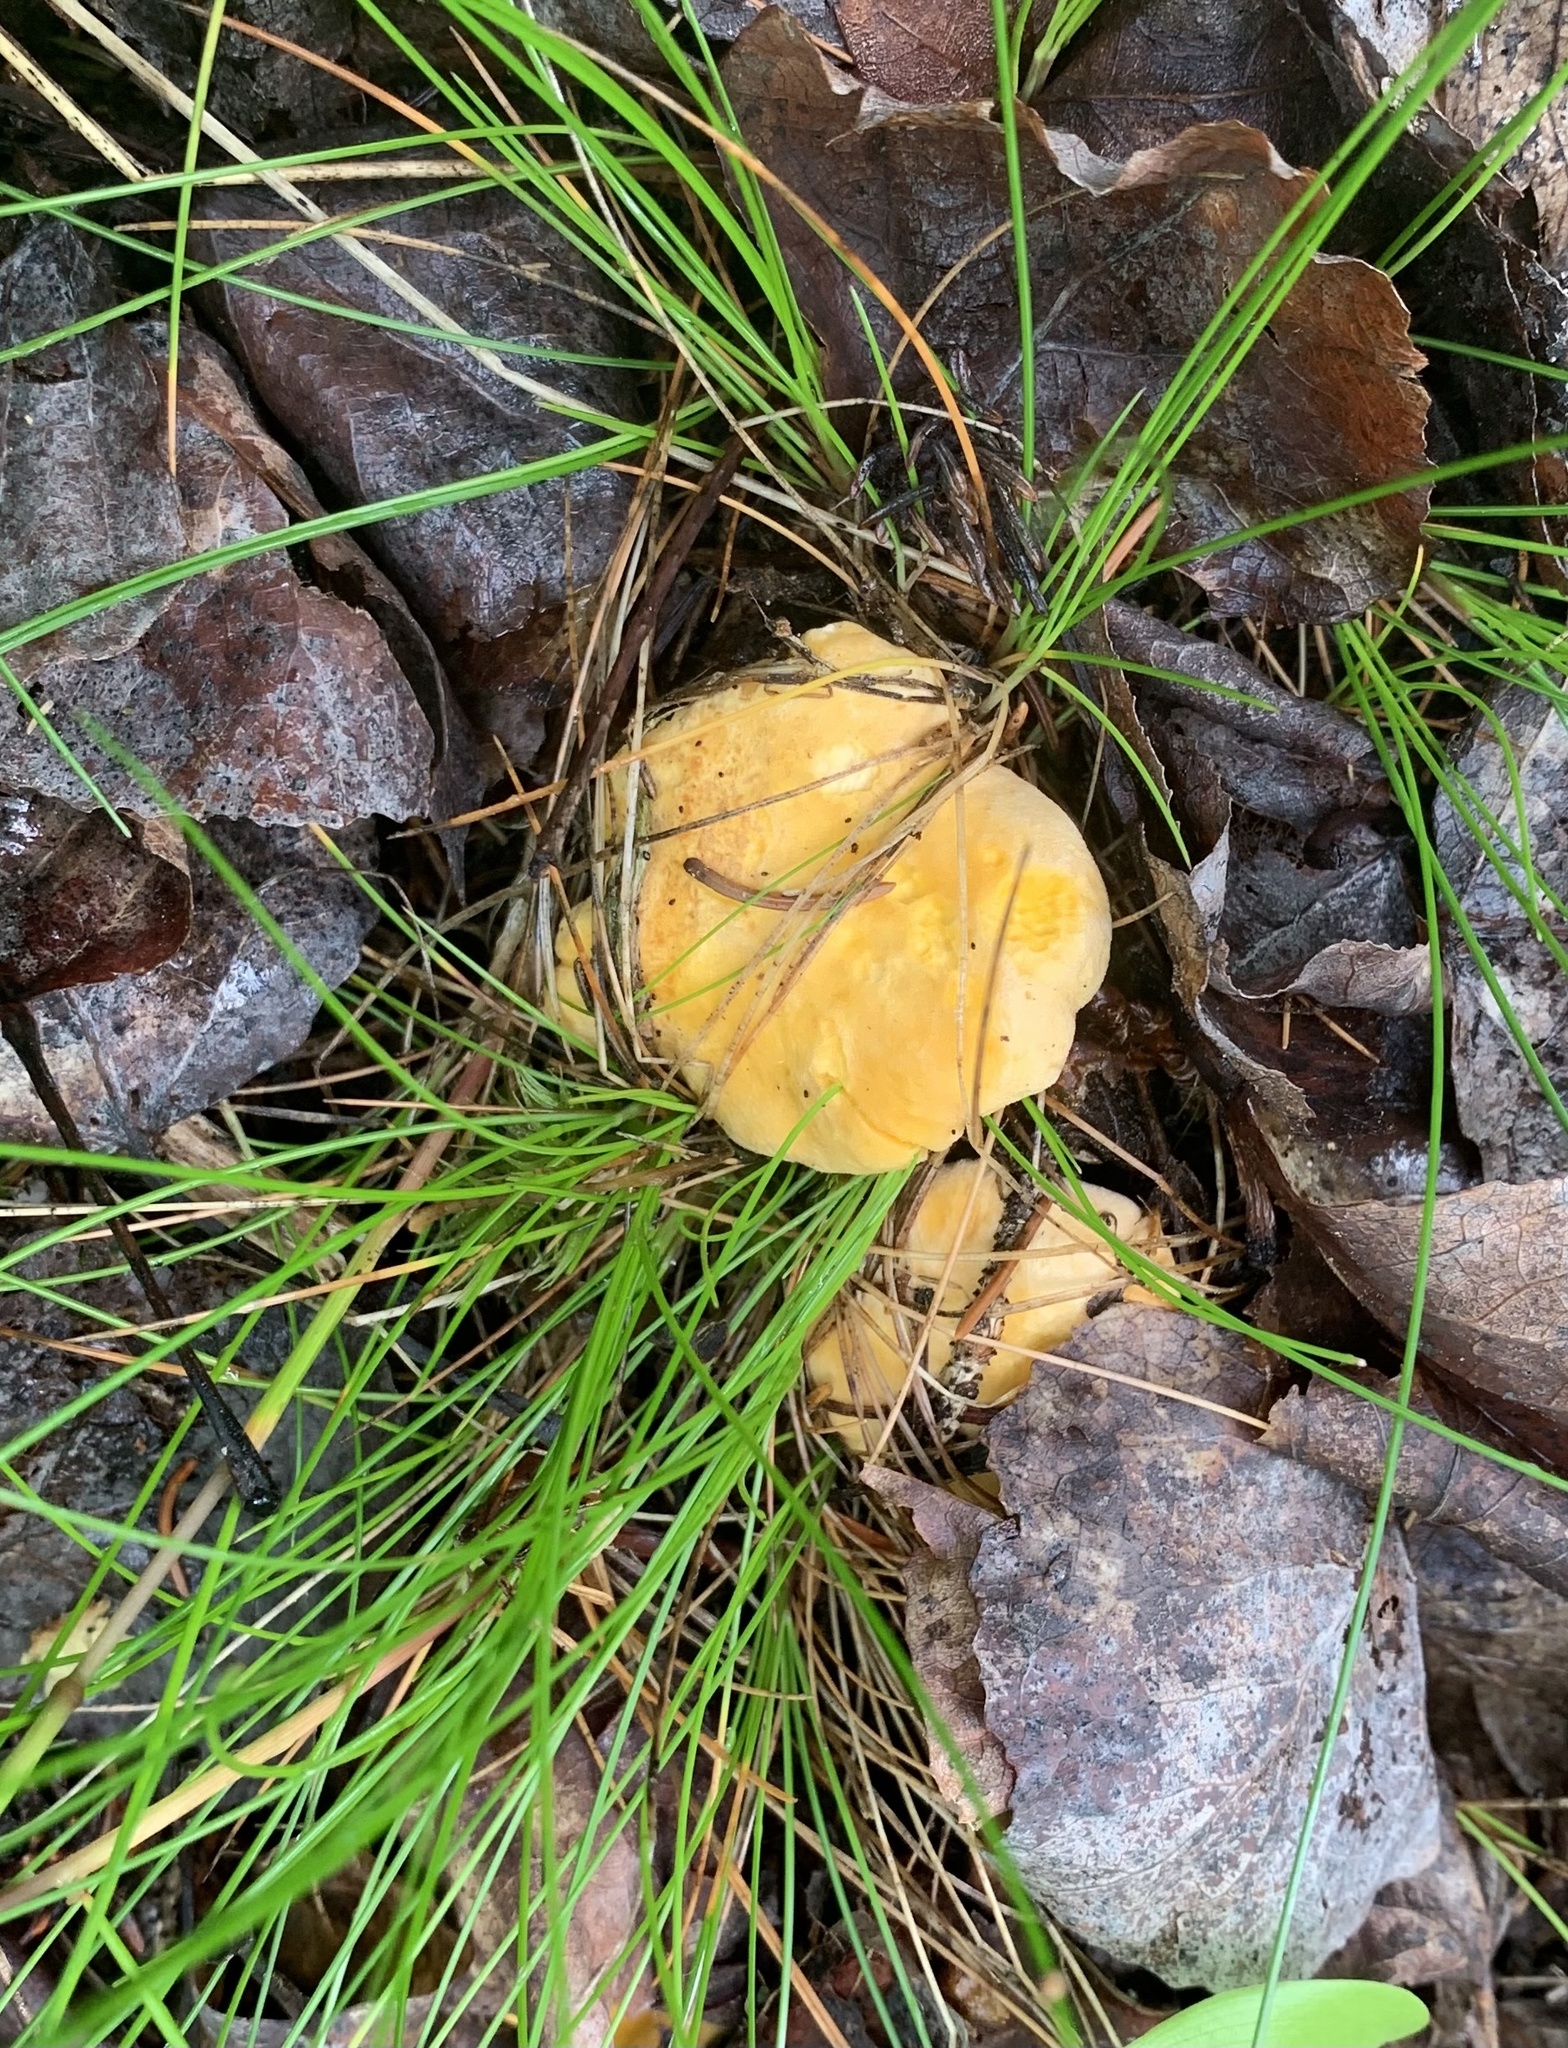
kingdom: Fungi
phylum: Basidiomycota
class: Agaricomycetes
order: Cantharellales
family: Hydnaceae
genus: Cantharellus
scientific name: Cantharellus enelensis
